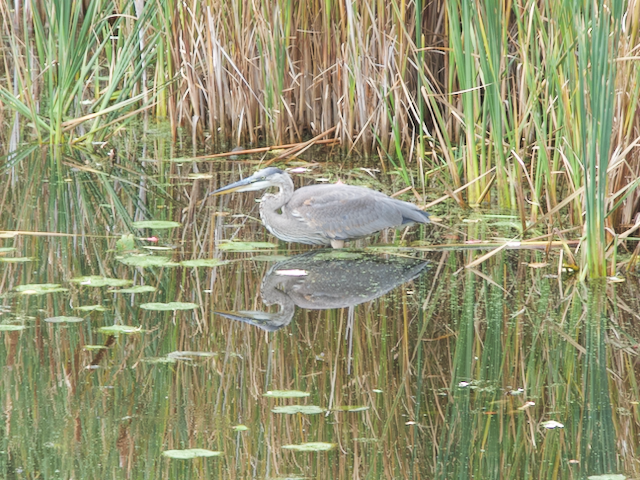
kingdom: Animalia
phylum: Chordata
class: Aves
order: Pelecaniformes
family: Ardeidae
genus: Ardea
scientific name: Ardea herodias
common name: Great blue heron
